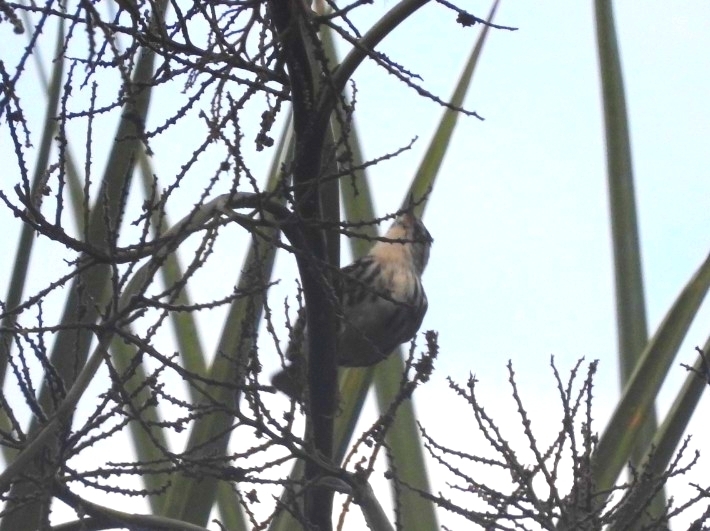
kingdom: Animalia
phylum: Chordata
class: Aves
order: Passeriformes
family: Parulidae
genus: Mniotilta
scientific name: Mniotilta varia
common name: Black-and-white warbler
